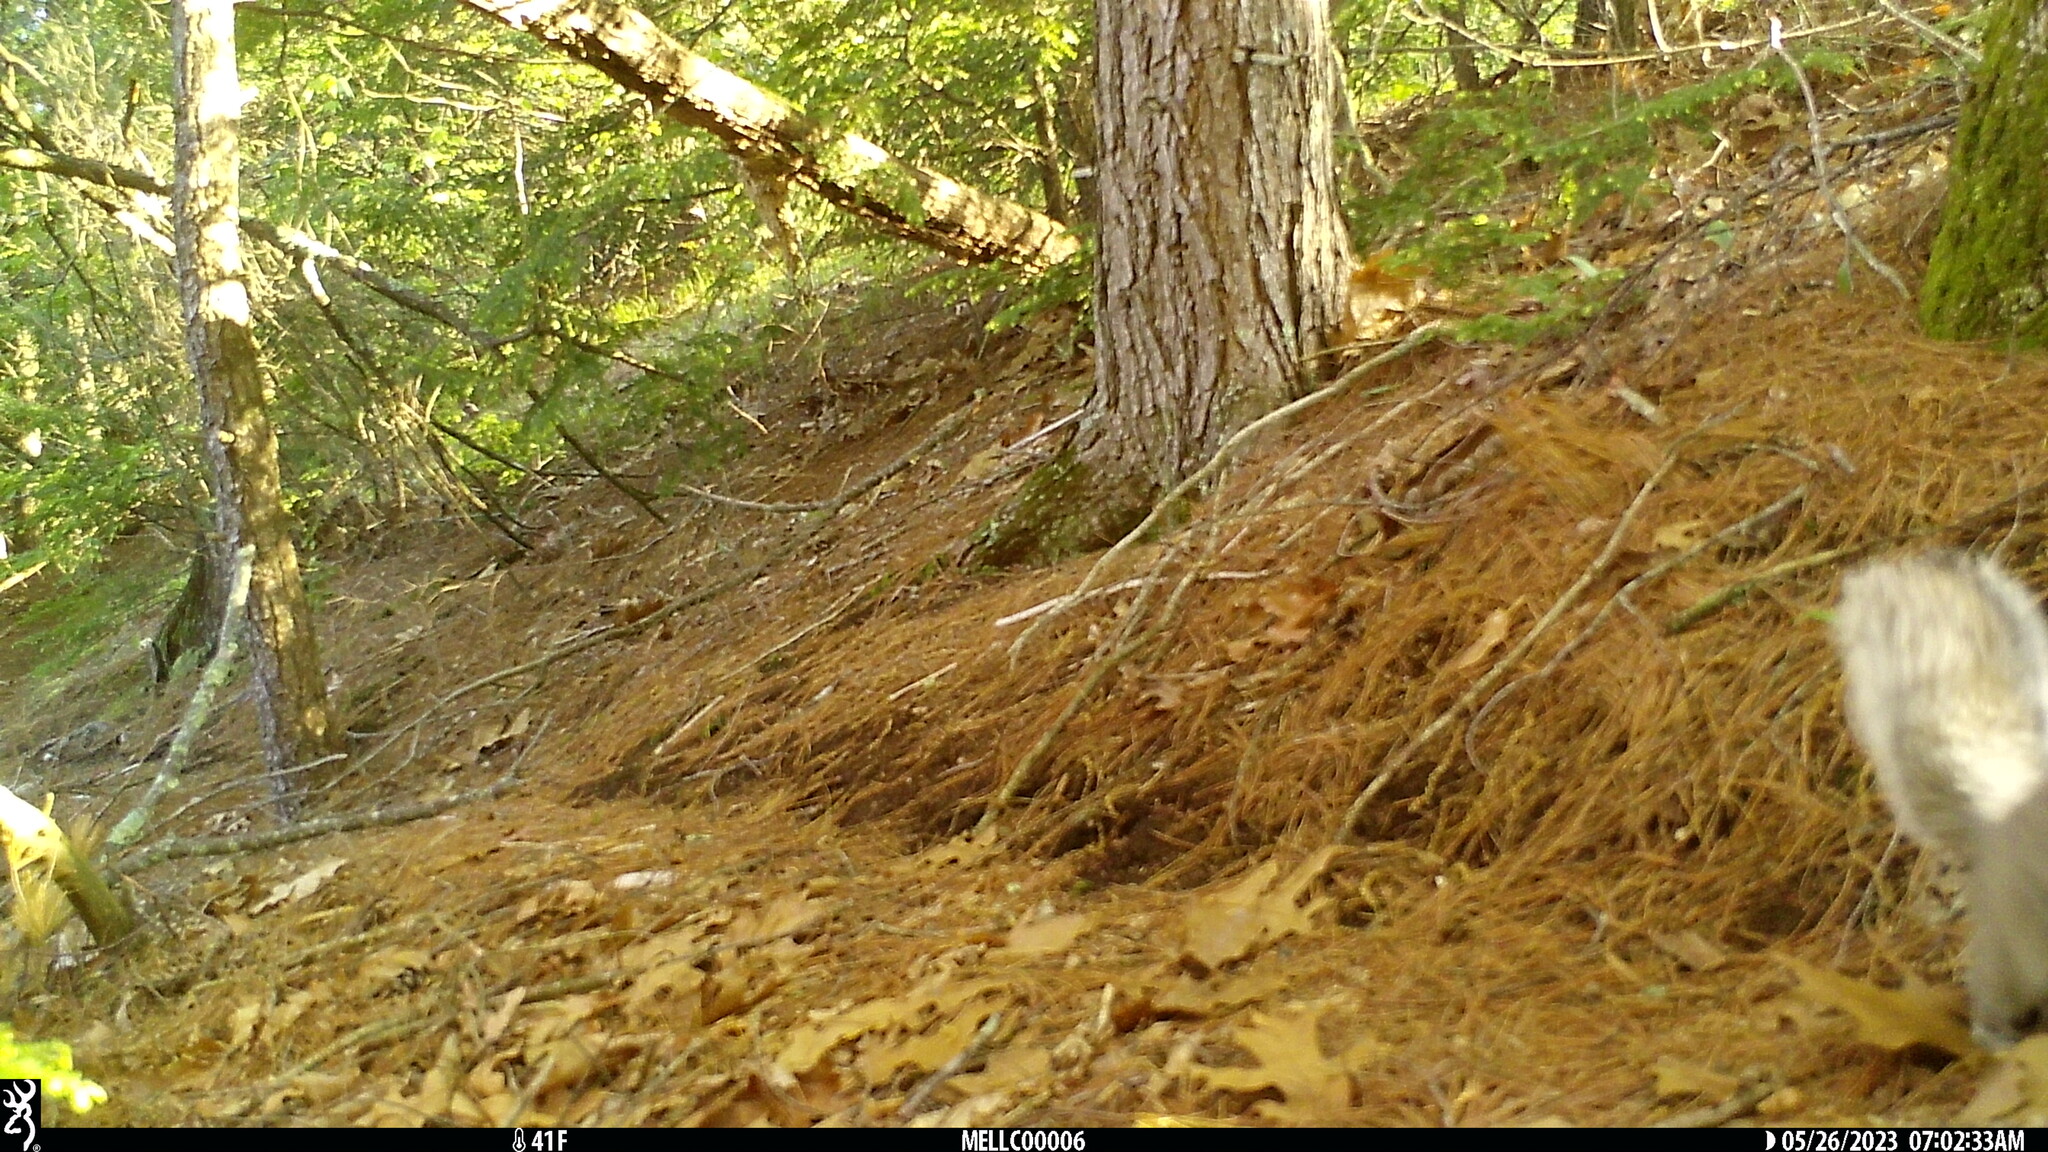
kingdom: Animalia
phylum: Chordata
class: Mammalia
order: Rodentia
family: Sciuridae
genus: Sciurus
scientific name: Sciurus carolinensis
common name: Eastern gray squirrel
